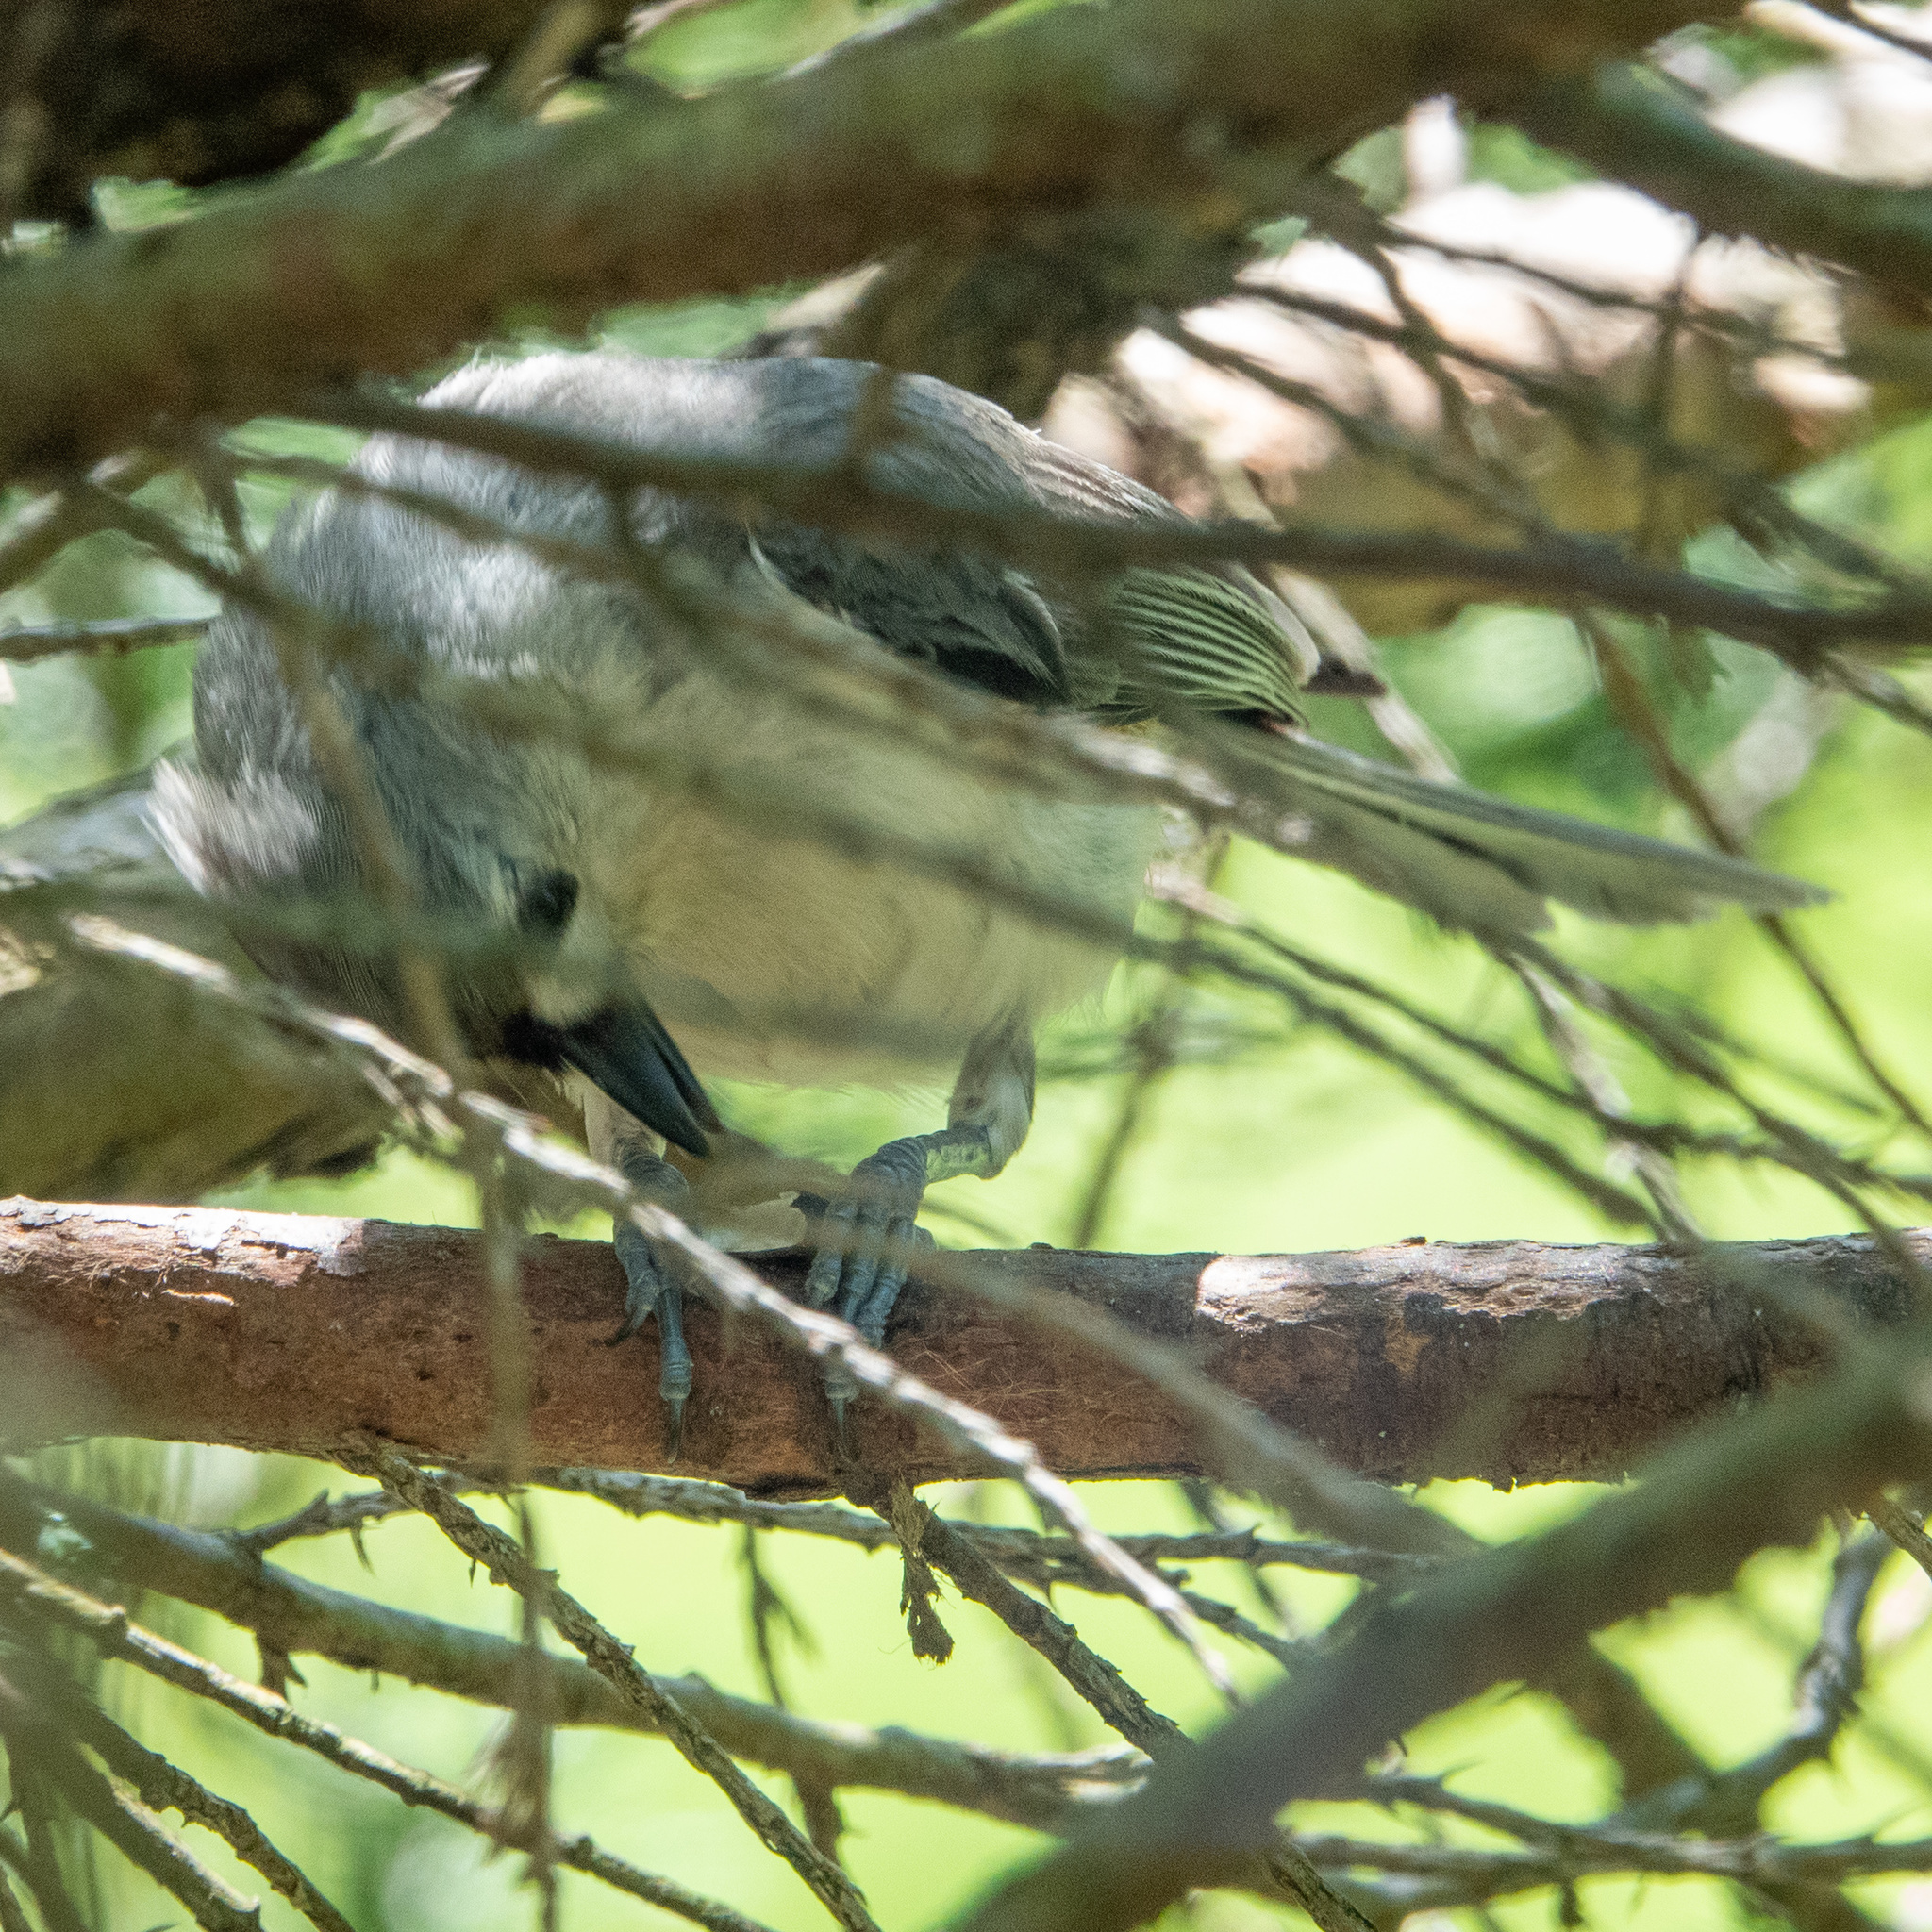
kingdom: Animalia
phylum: Chordata
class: Aves
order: Passeriformes
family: Paridae
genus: Baeolophus
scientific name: Baeolophus bicolor
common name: Tufted titmouse
